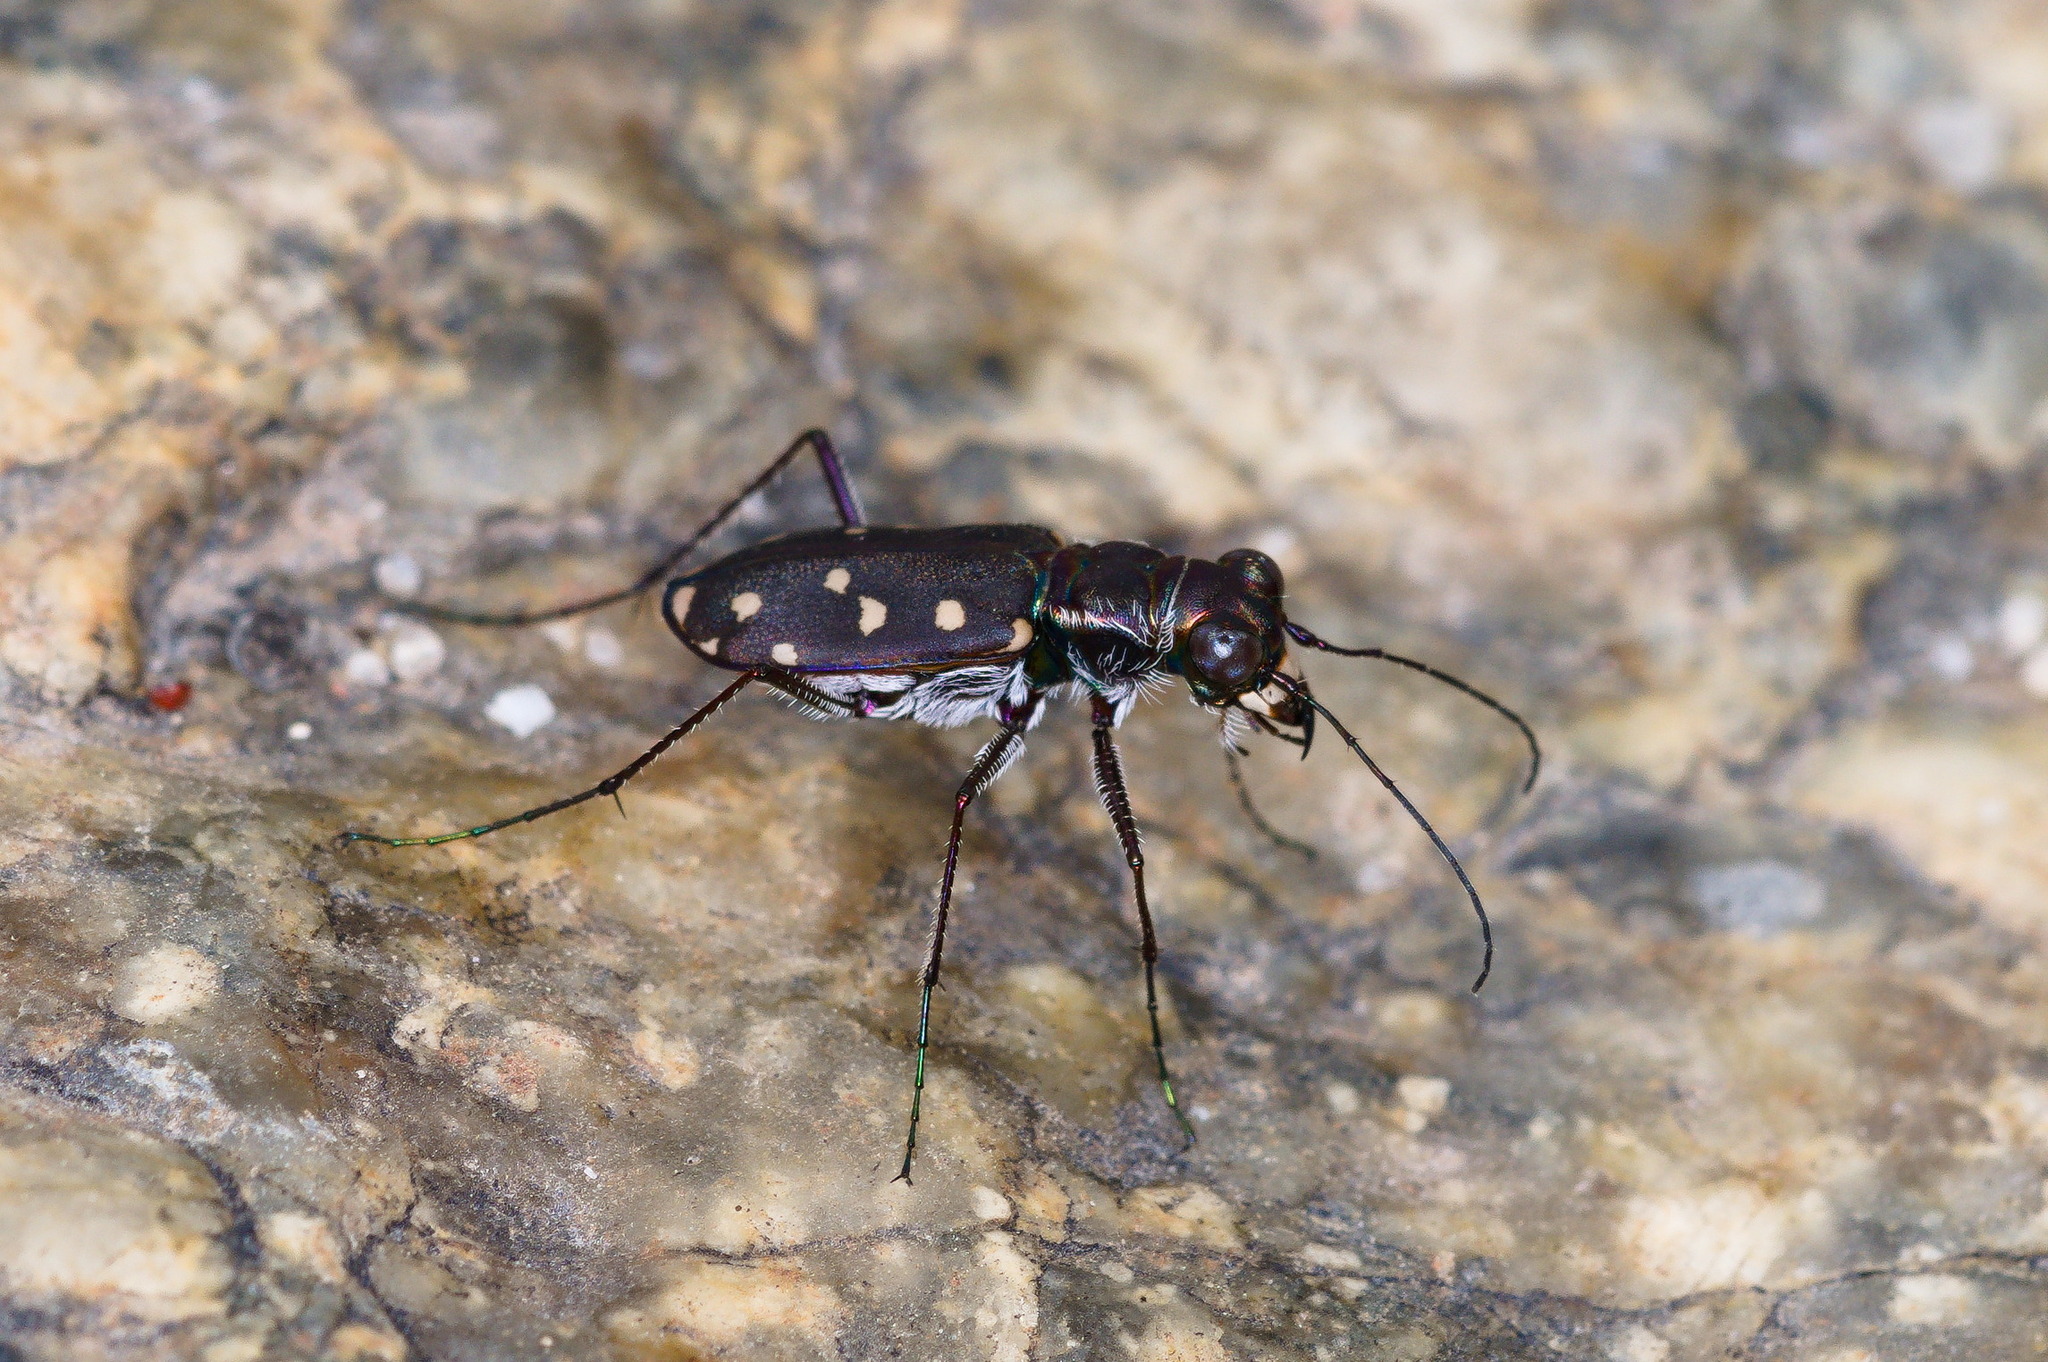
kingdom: Animalia
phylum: Arthropoda
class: Insecta
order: Coleoptera
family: Carabidae
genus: Cicindela
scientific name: Cicindela sedecimpunctata
